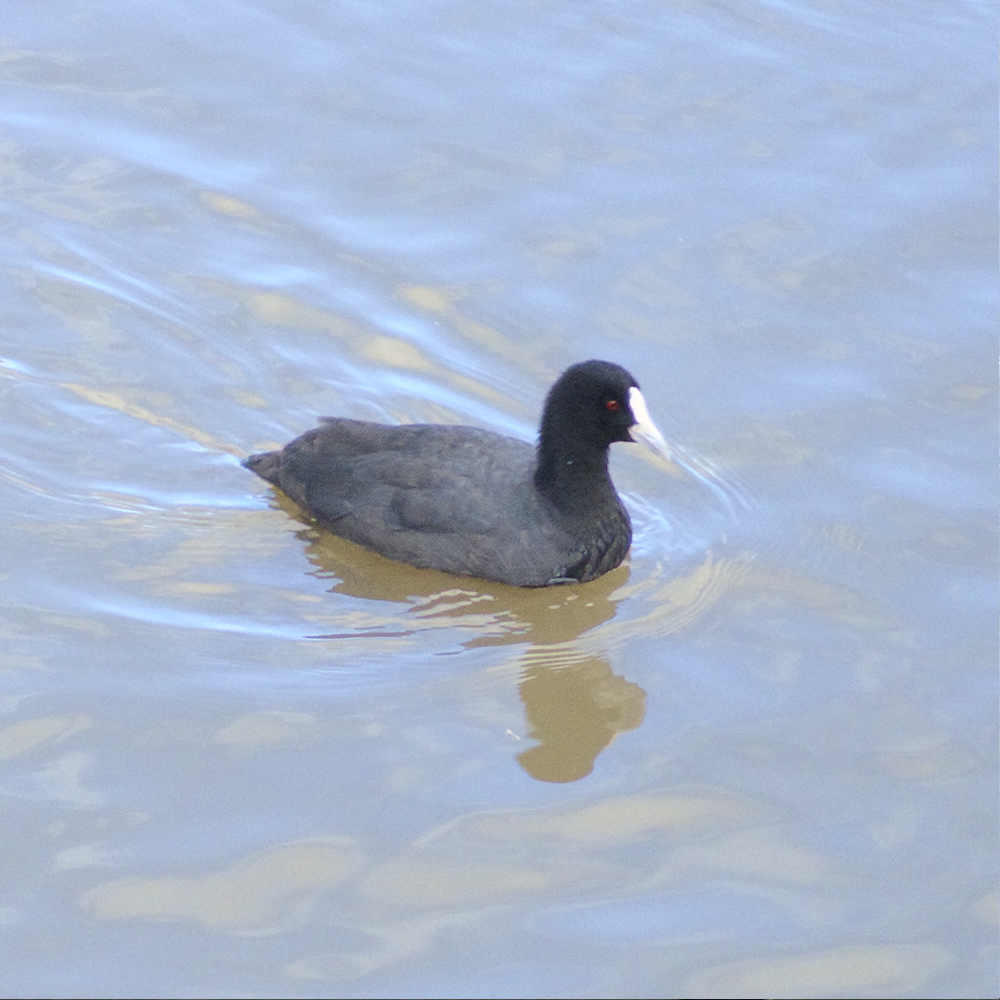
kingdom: Animalia
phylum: Chordata
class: Aves
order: Gruiformes
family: Rallidae
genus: Fulica
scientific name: Fulica atra
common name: Eurasian coot
